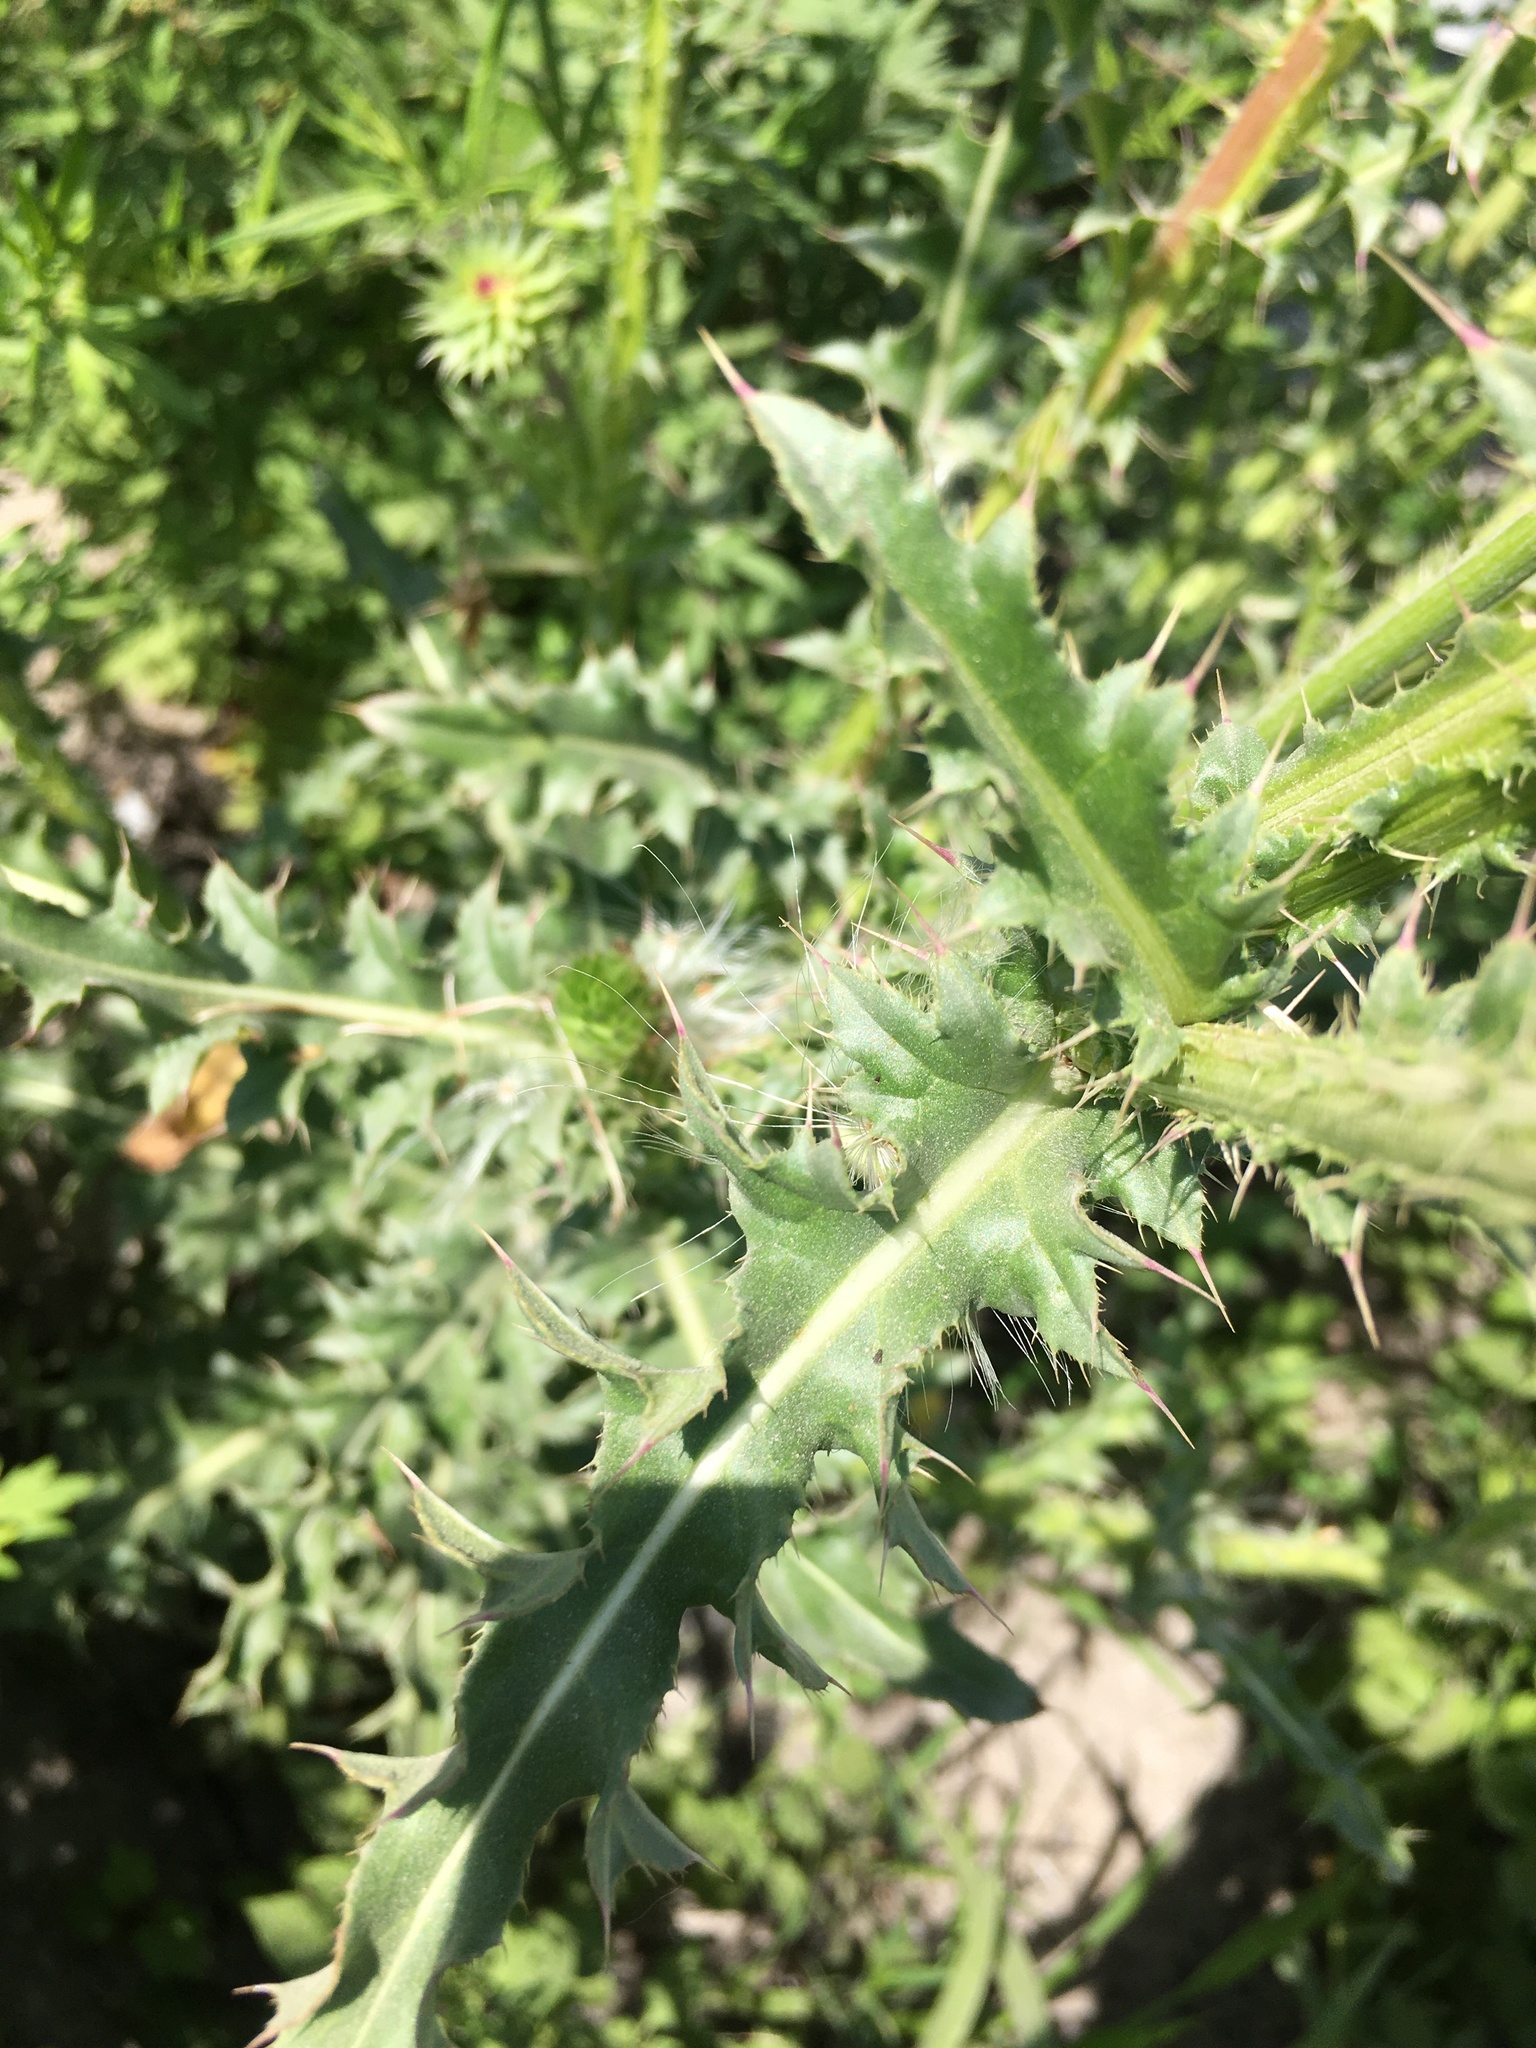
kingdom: Plantae
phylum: Tracheophyta
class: Magnoliopsida
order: Asterales
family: Asteraceae
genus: Carduus
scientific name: Carduus nutans
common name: Musk thistle
